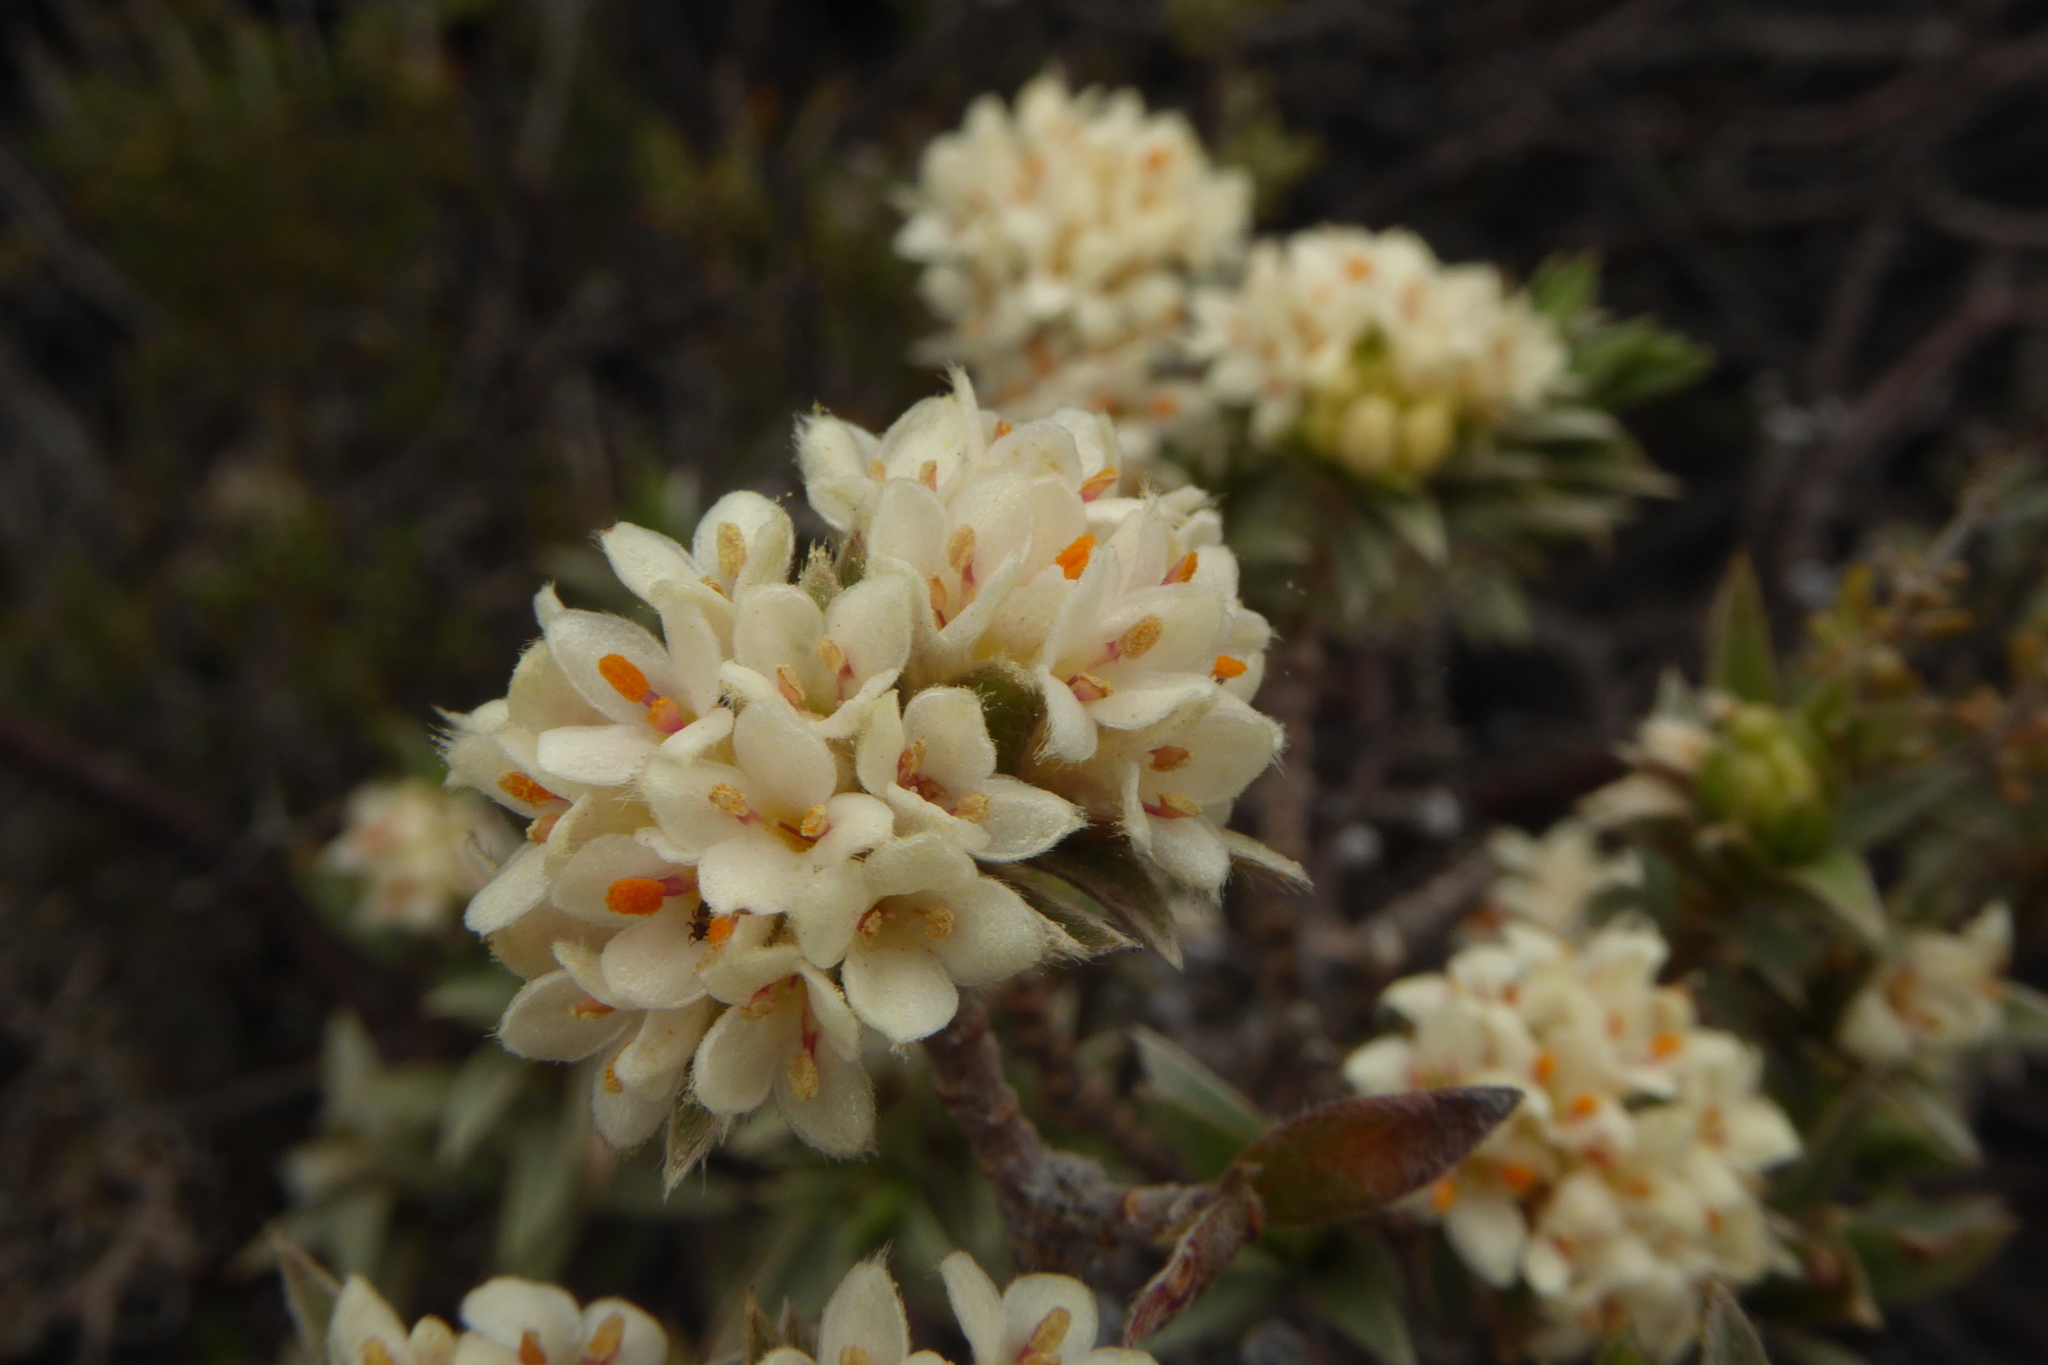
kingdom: Plantae
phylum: Tracheophyta
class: Magnoliopsida
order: Malvales
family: Thymelaeaceae
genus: Pimelea
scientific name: Pimelea aridula
